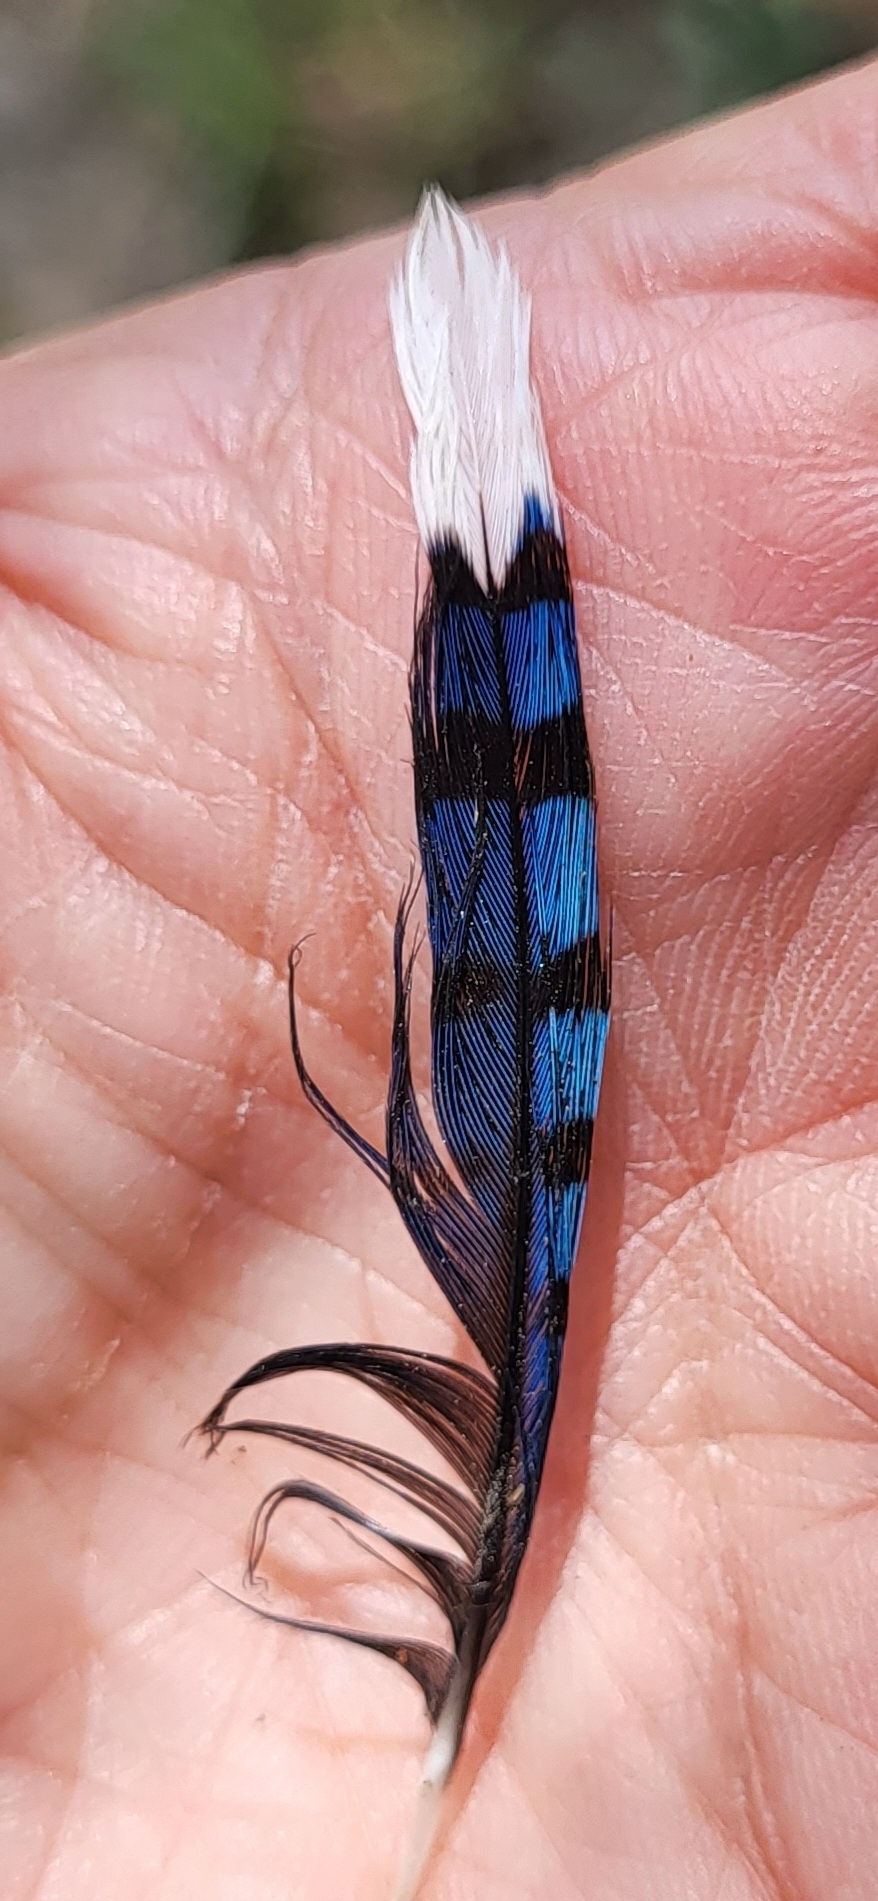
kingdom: Animalia
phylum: Chordata
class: Aves
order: Passeriformes
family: Corvidae
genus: Cyanocitta
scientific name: Cyanocitta cristata
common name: Blue jay
